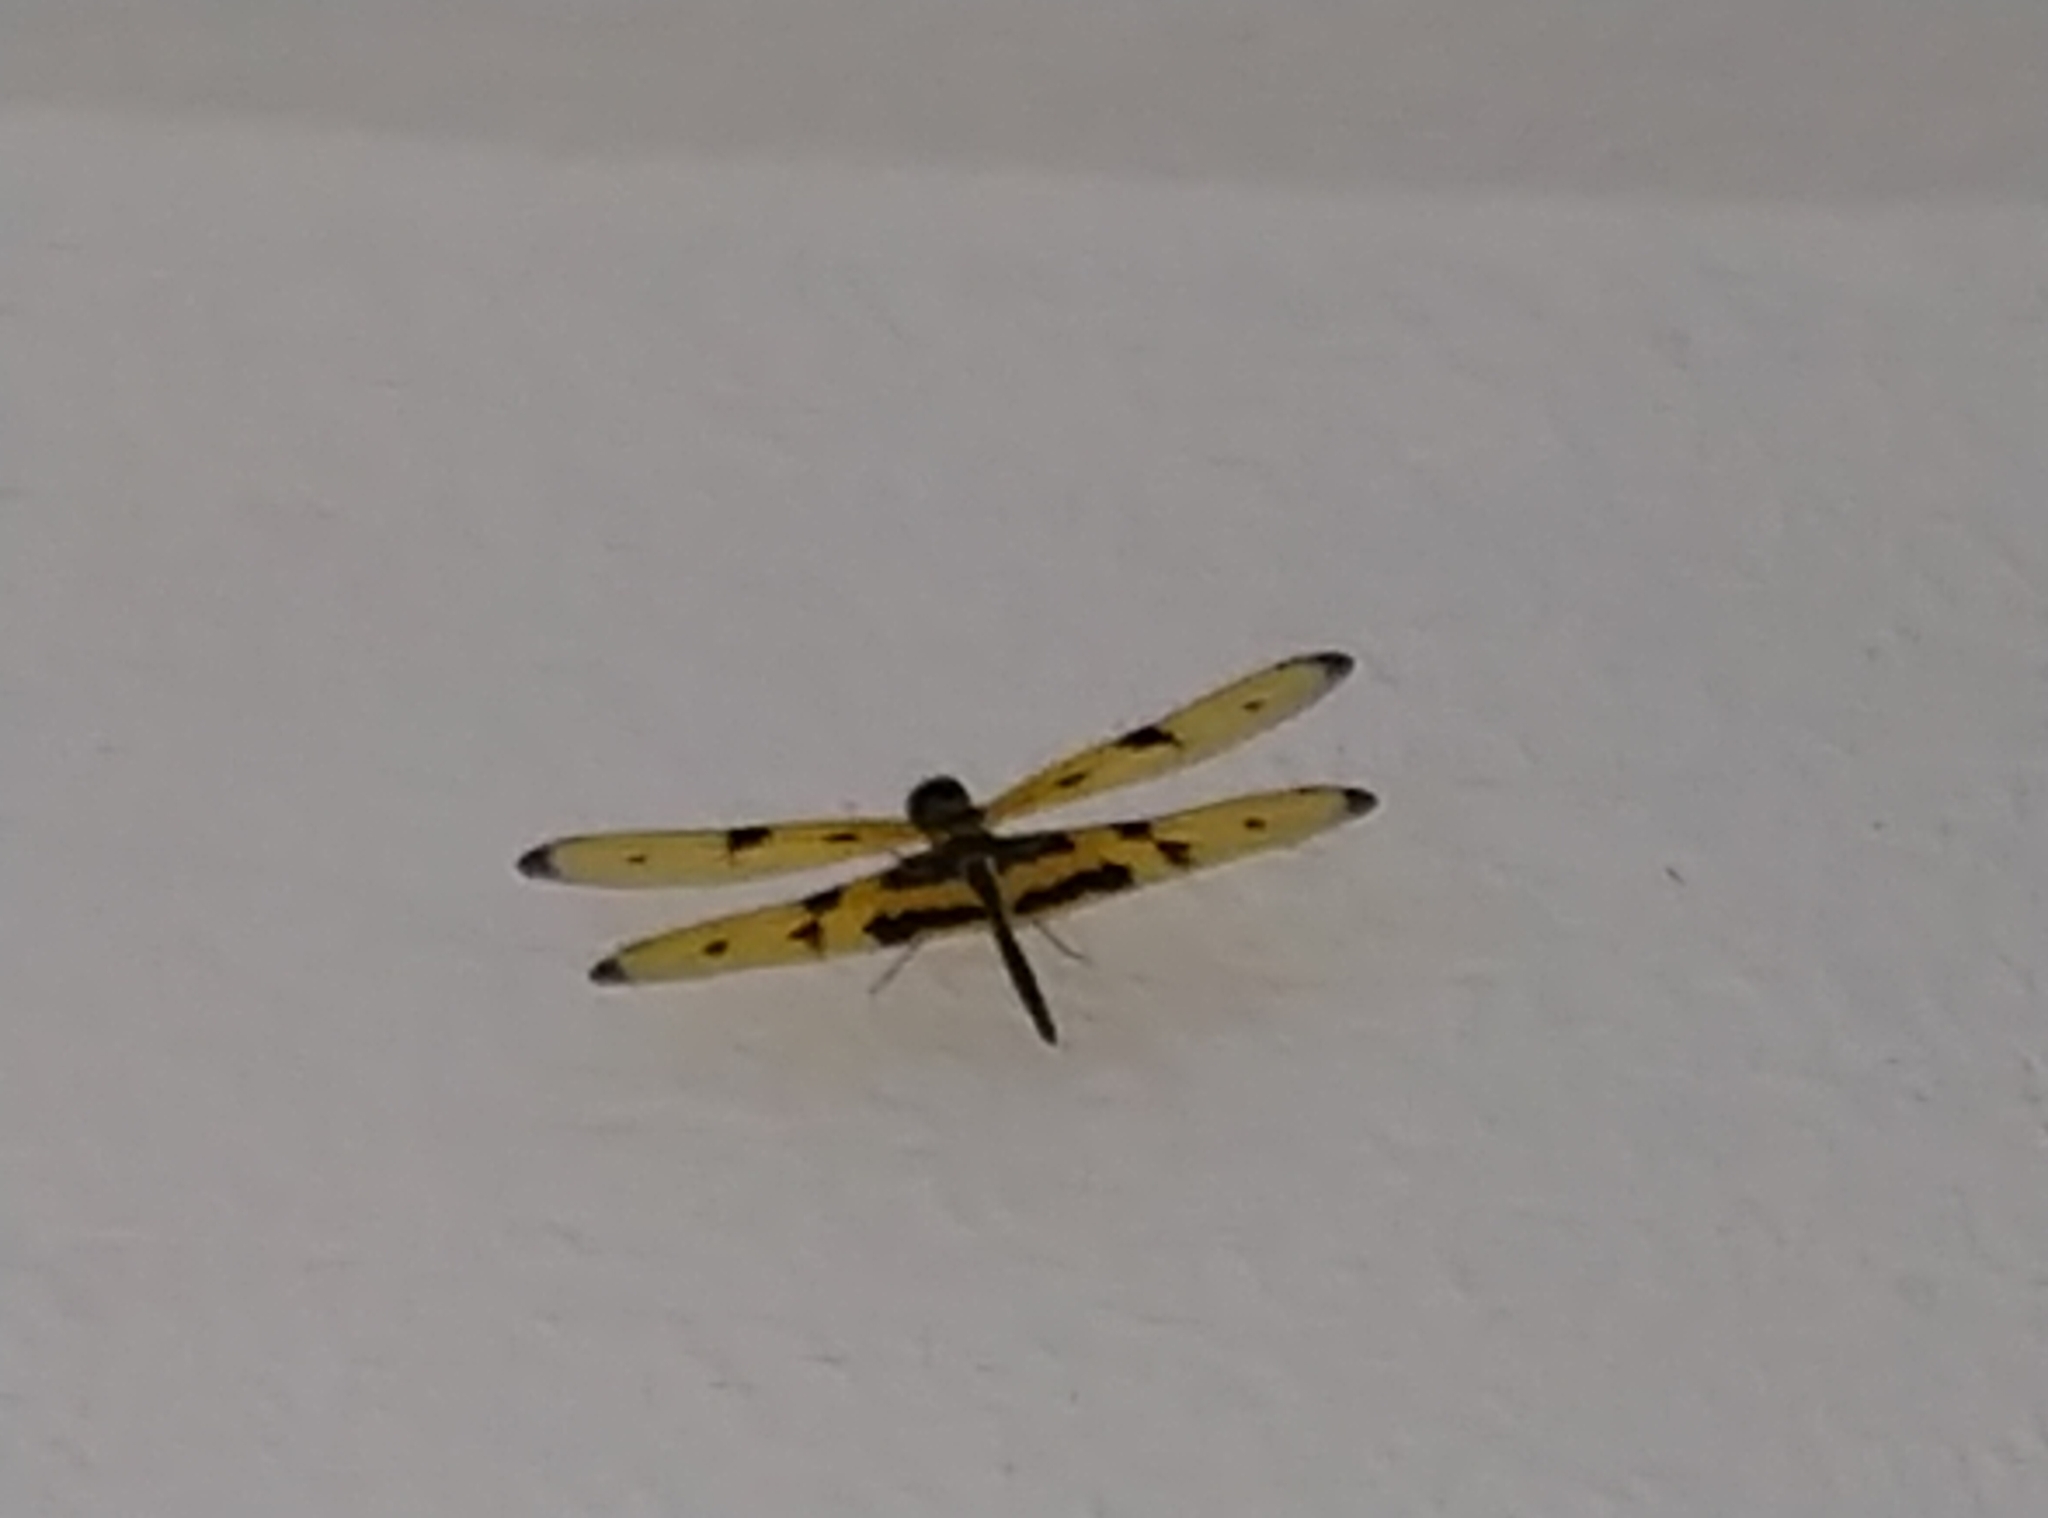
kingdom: Animalia
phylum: Arthropoda
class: Insecta
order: Odonata
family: Libellulidae
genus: Rhyothemis
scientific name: Rhyothemis variegata
